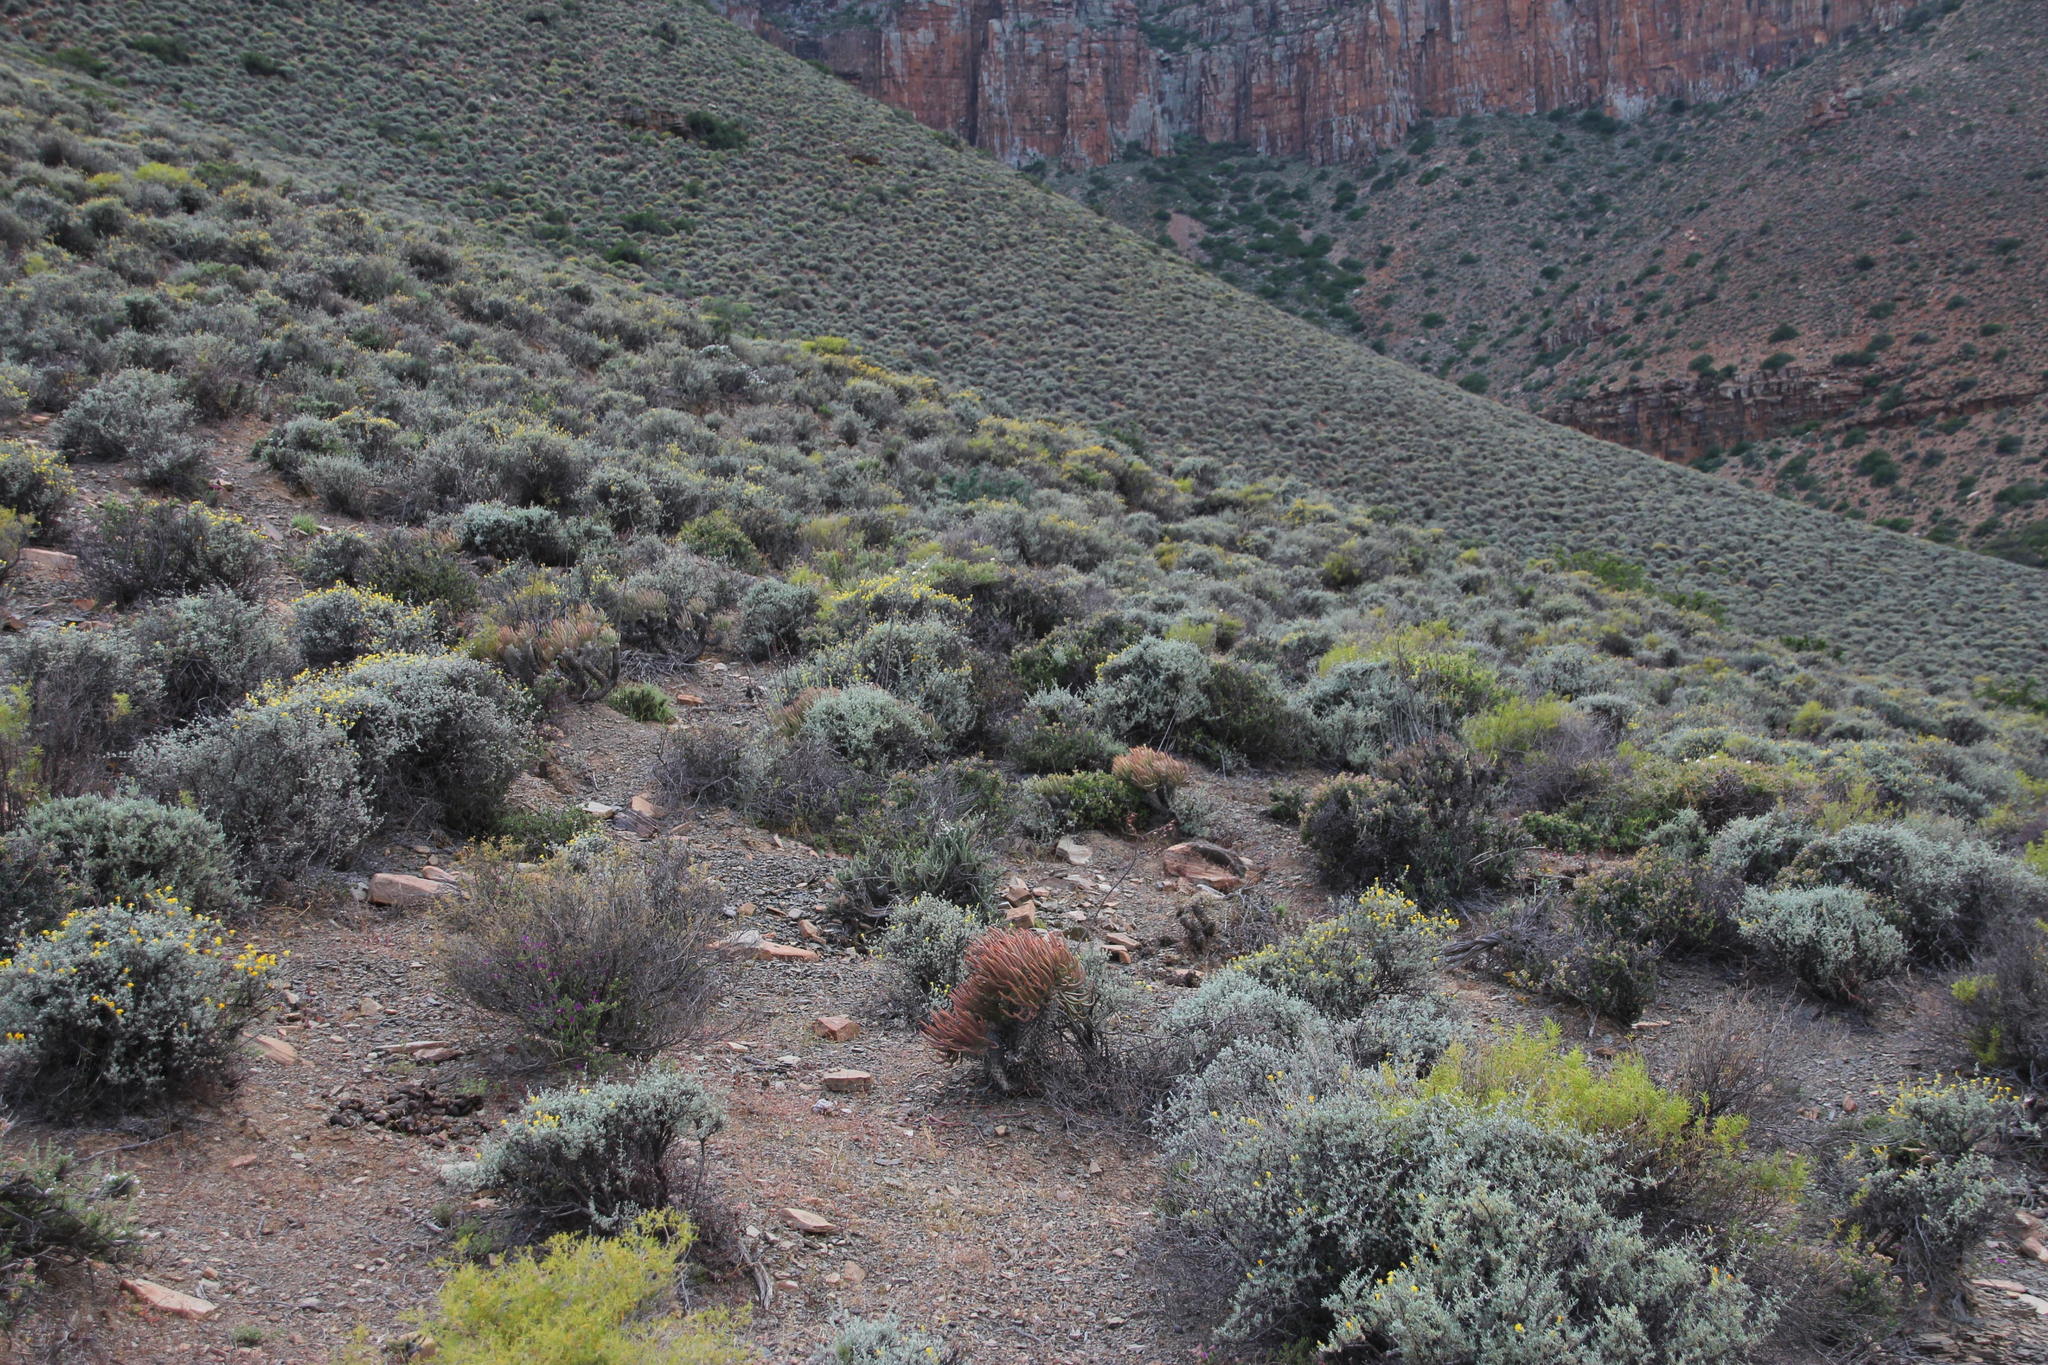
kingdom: Plantae
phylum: Tracheophyta
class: Magnoliopsida
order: Saxifragales
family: Crassulaceae
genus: Tylecodon
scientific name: Tylecodon wallichii
